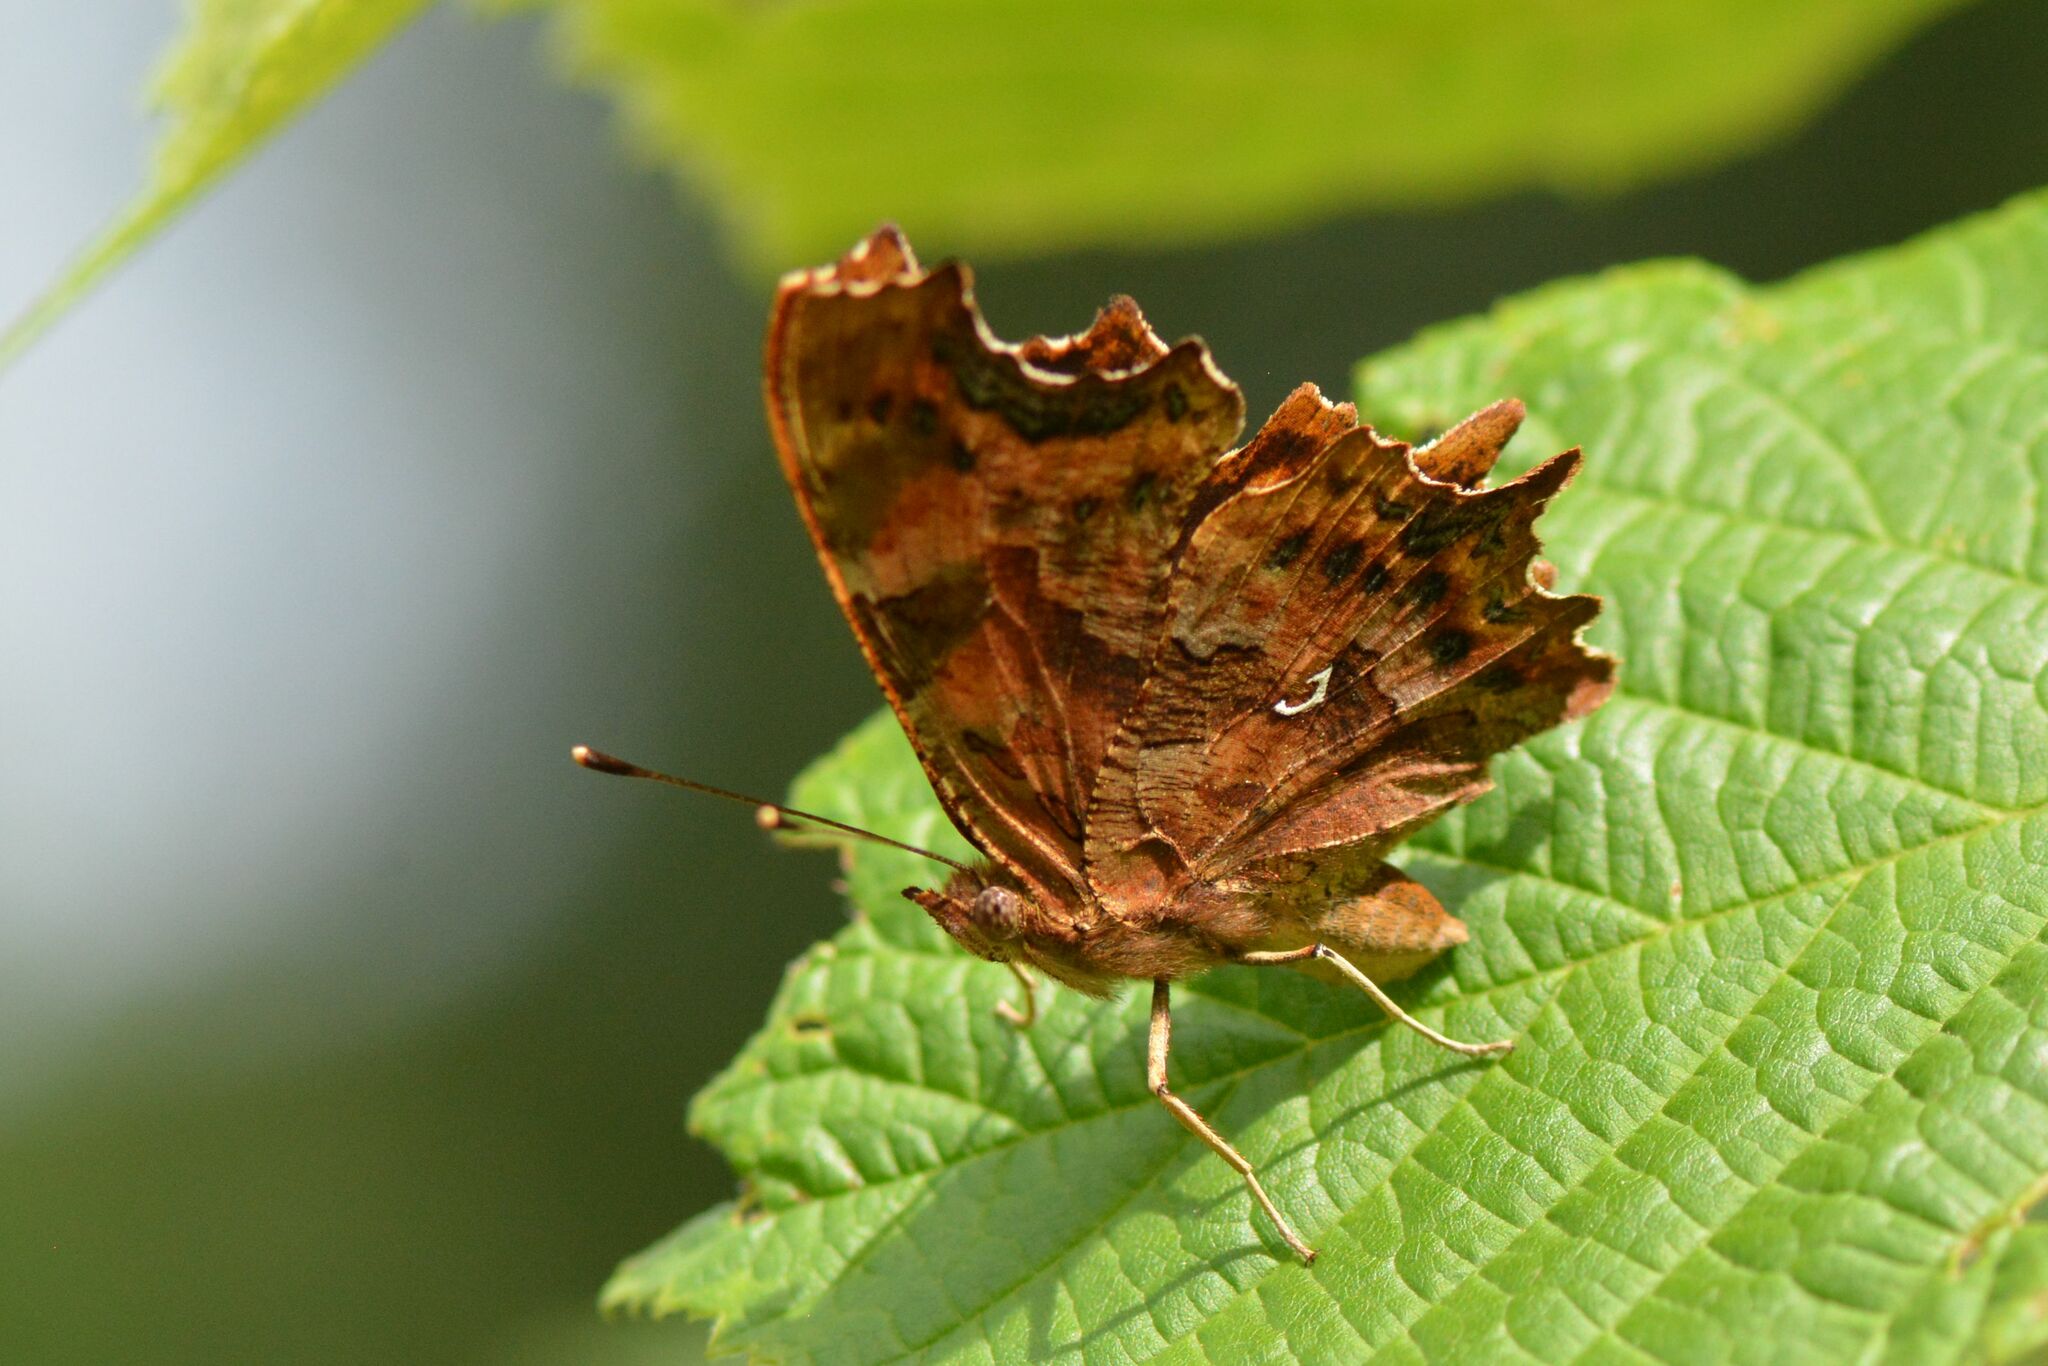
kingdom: Animalia
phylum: Arthropoda
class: Insecta
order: Lepidoptera
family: Nymphalidae
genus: Polygonia
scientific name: Polygonia c-album
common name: Comma
